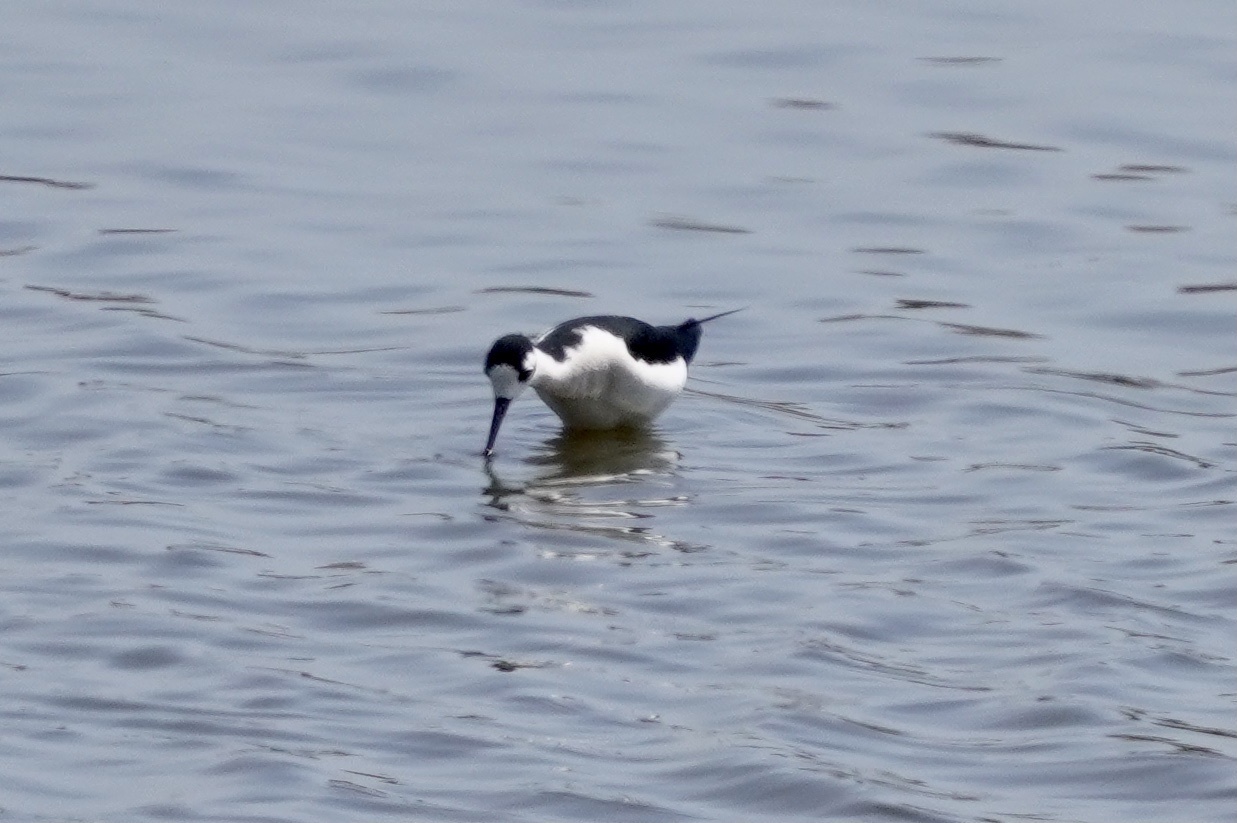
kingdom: Animalia
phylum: Chordata
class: Aves
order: Charadriiformes
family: Recurvirostridae
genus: Himantopus
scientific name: Himantopus mexicanus
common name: Black-necked stilt
